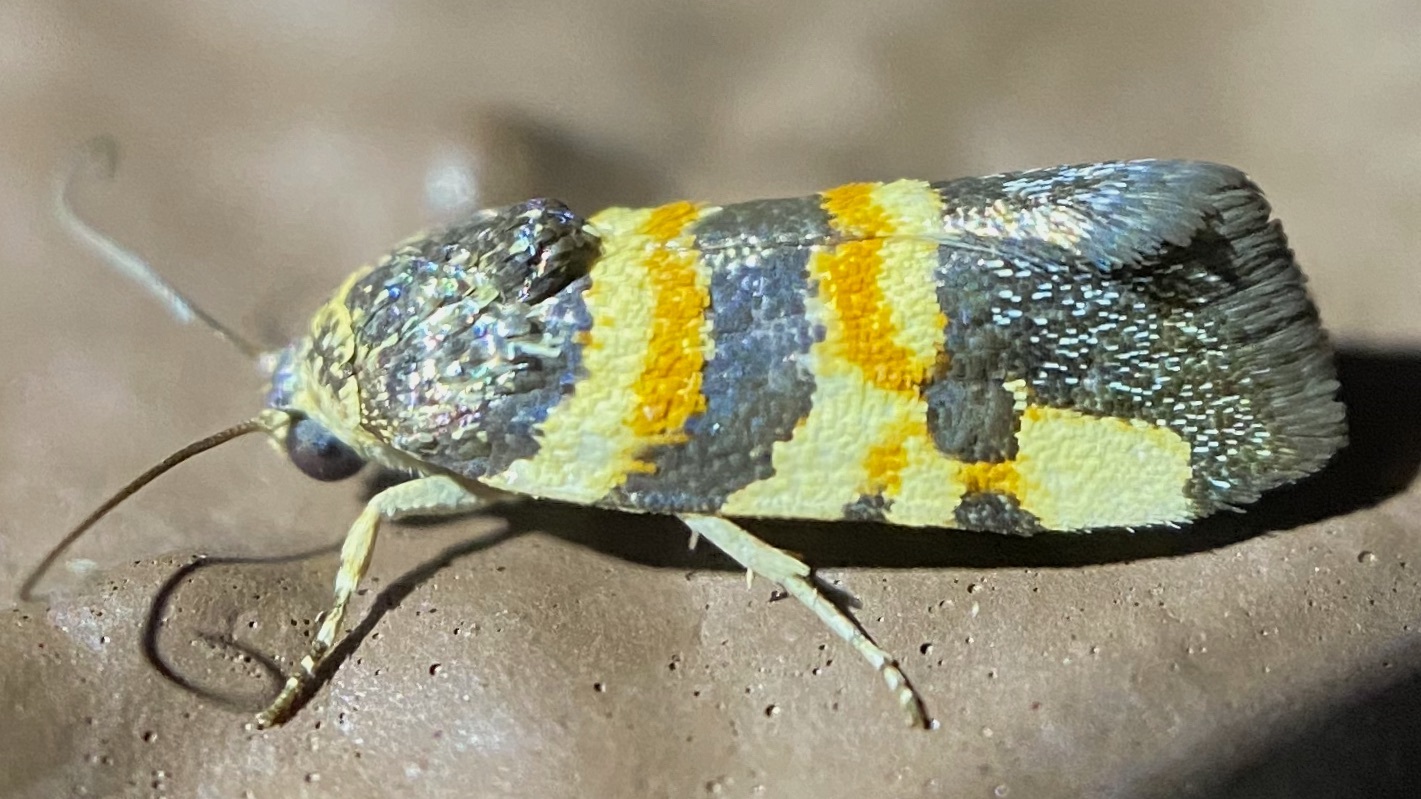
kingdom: Animalia
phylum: Arthropoda
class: Insecta
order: Lepidoptera
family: Noctuidae
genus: Spragueia
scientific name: Spragueia funeralis
